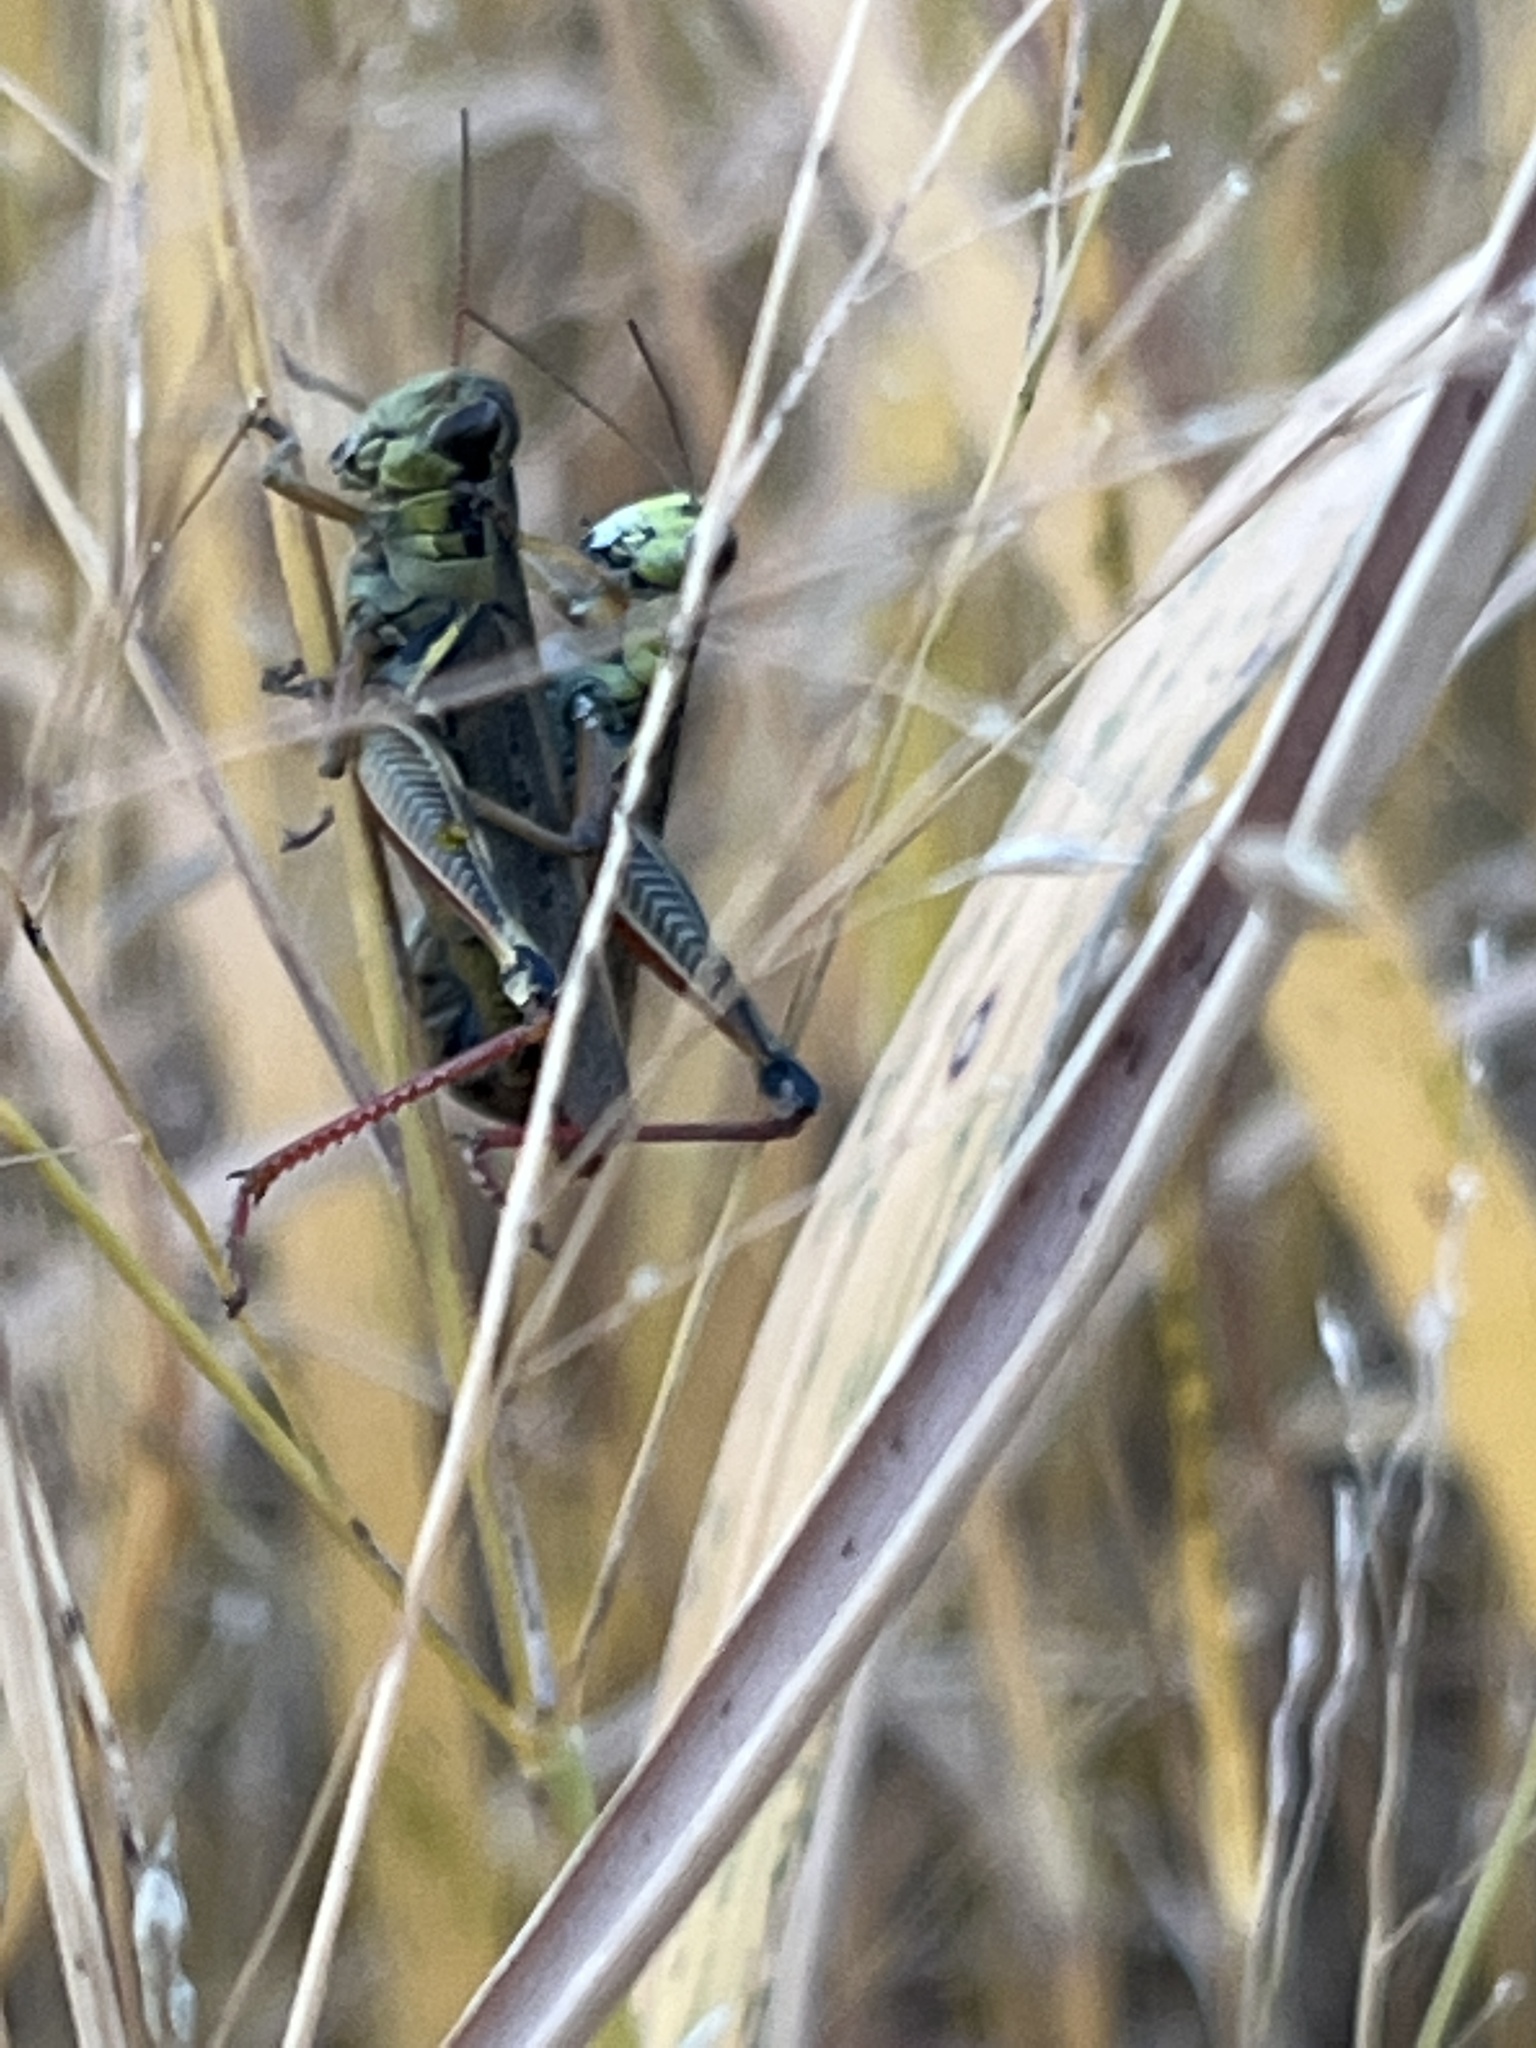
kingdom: Animalia
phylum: Arthropoda
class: Insecta
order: Orthoptera
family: Acrididae
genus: Melanoplus
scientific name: Melanoplus femurrubrum
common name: Red-legged grasshopper
